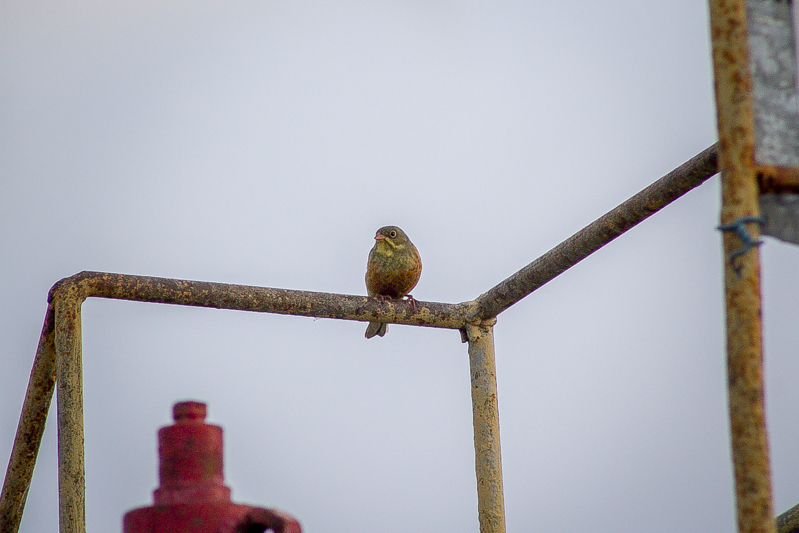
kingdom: Animalia
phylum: Chordata
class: Aves
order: Passeriformes
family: Emberizidae
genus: Emberiza
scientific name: Emberiza hortulana
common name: Ortolan bunting
